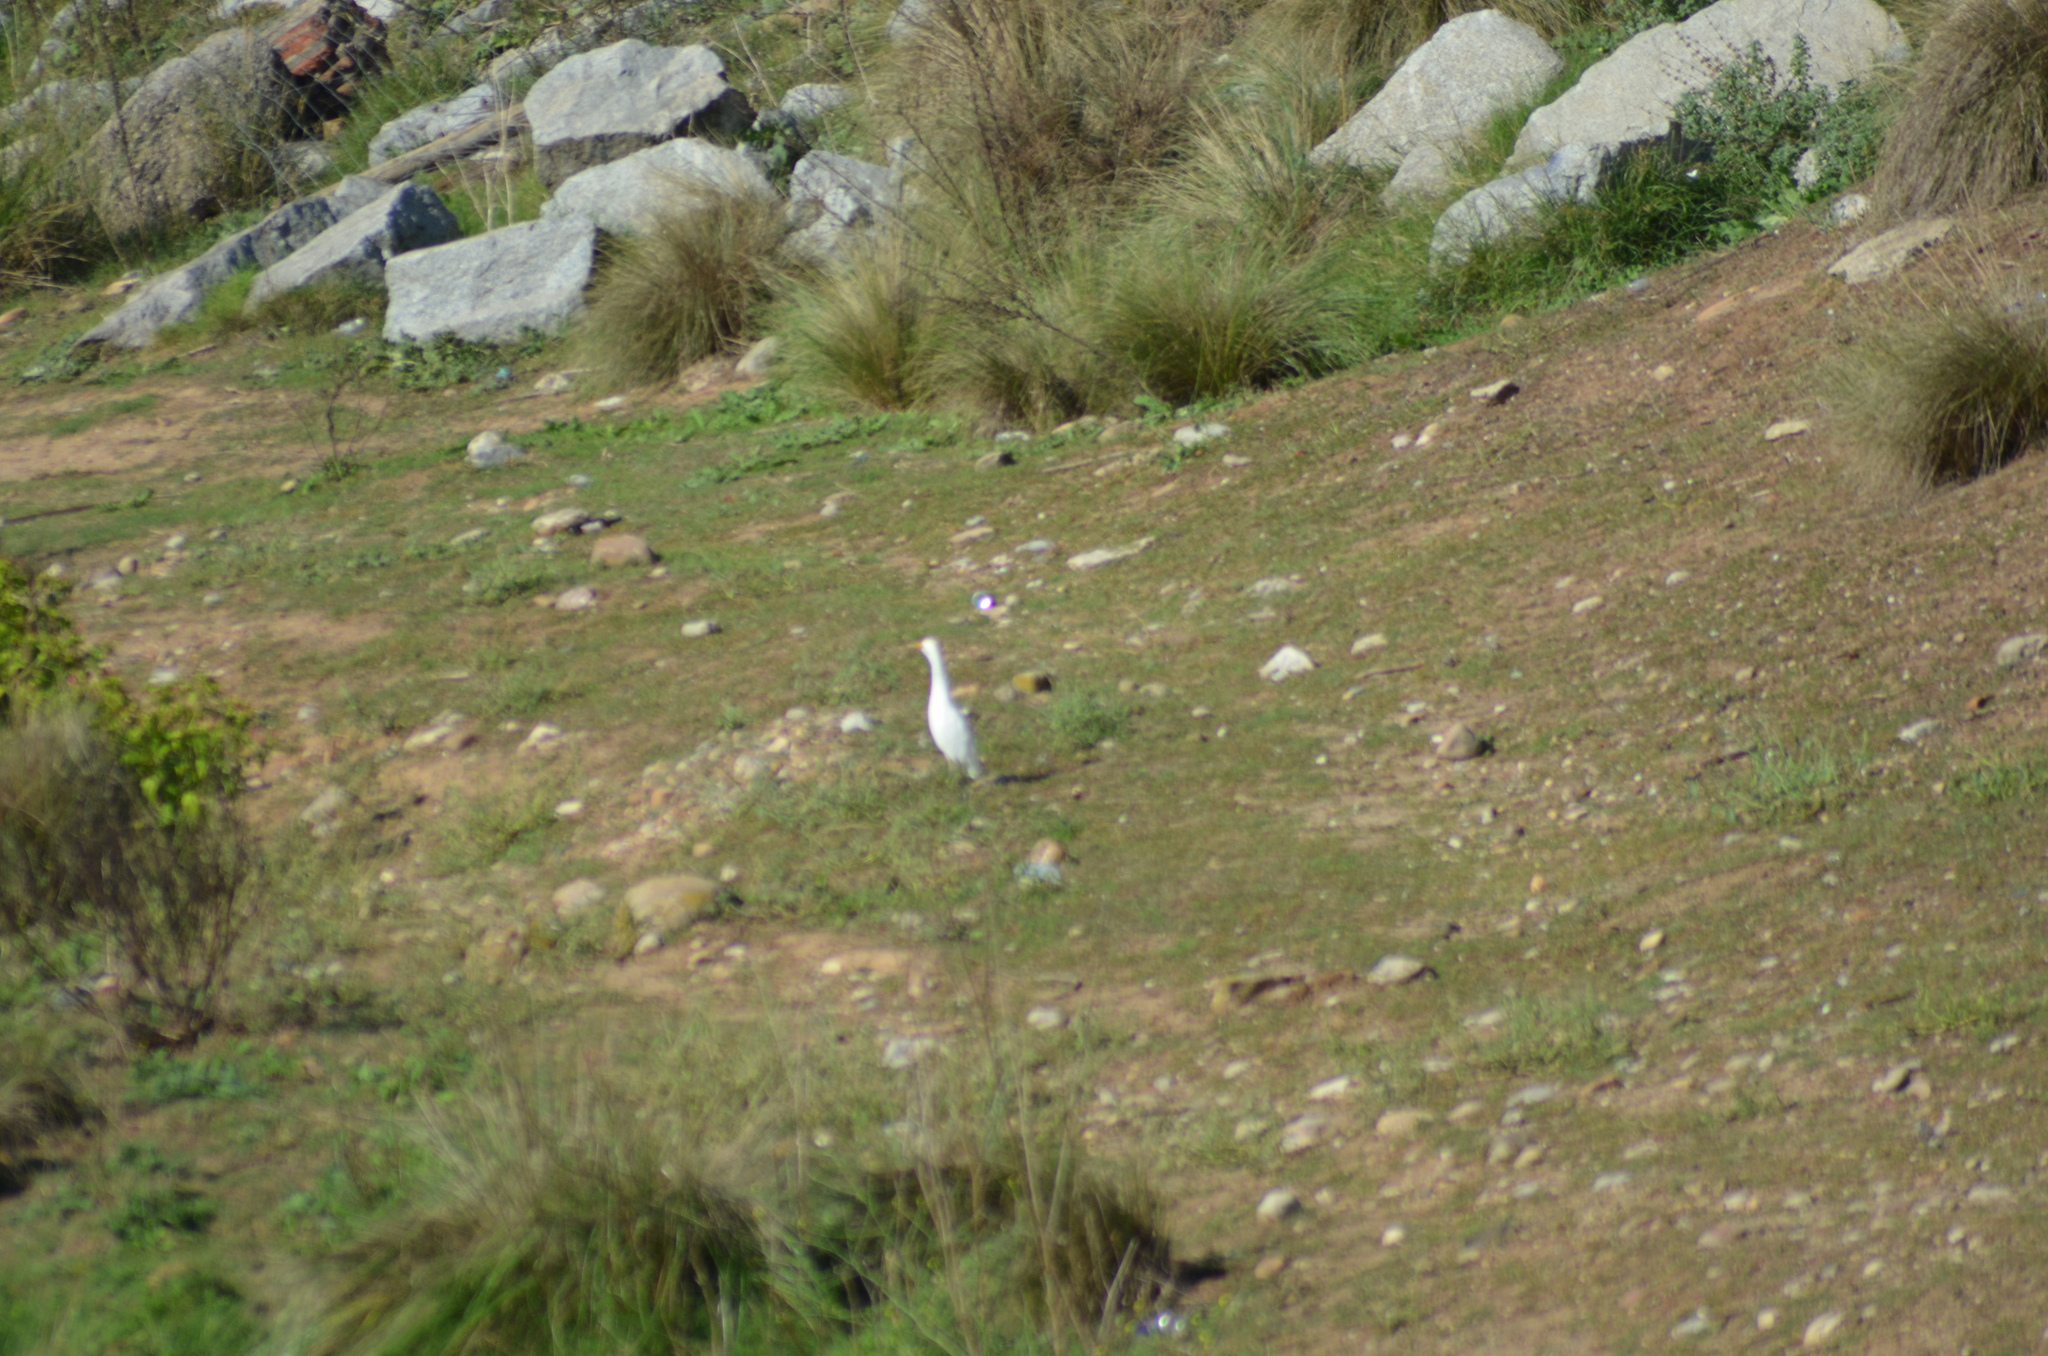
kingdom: Animalia
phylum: Chordata
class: Aves
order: Pelecaniformes
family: Ardeidae
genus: Bubulcus
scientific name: Bubulcus ibis
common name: Cattle egret
